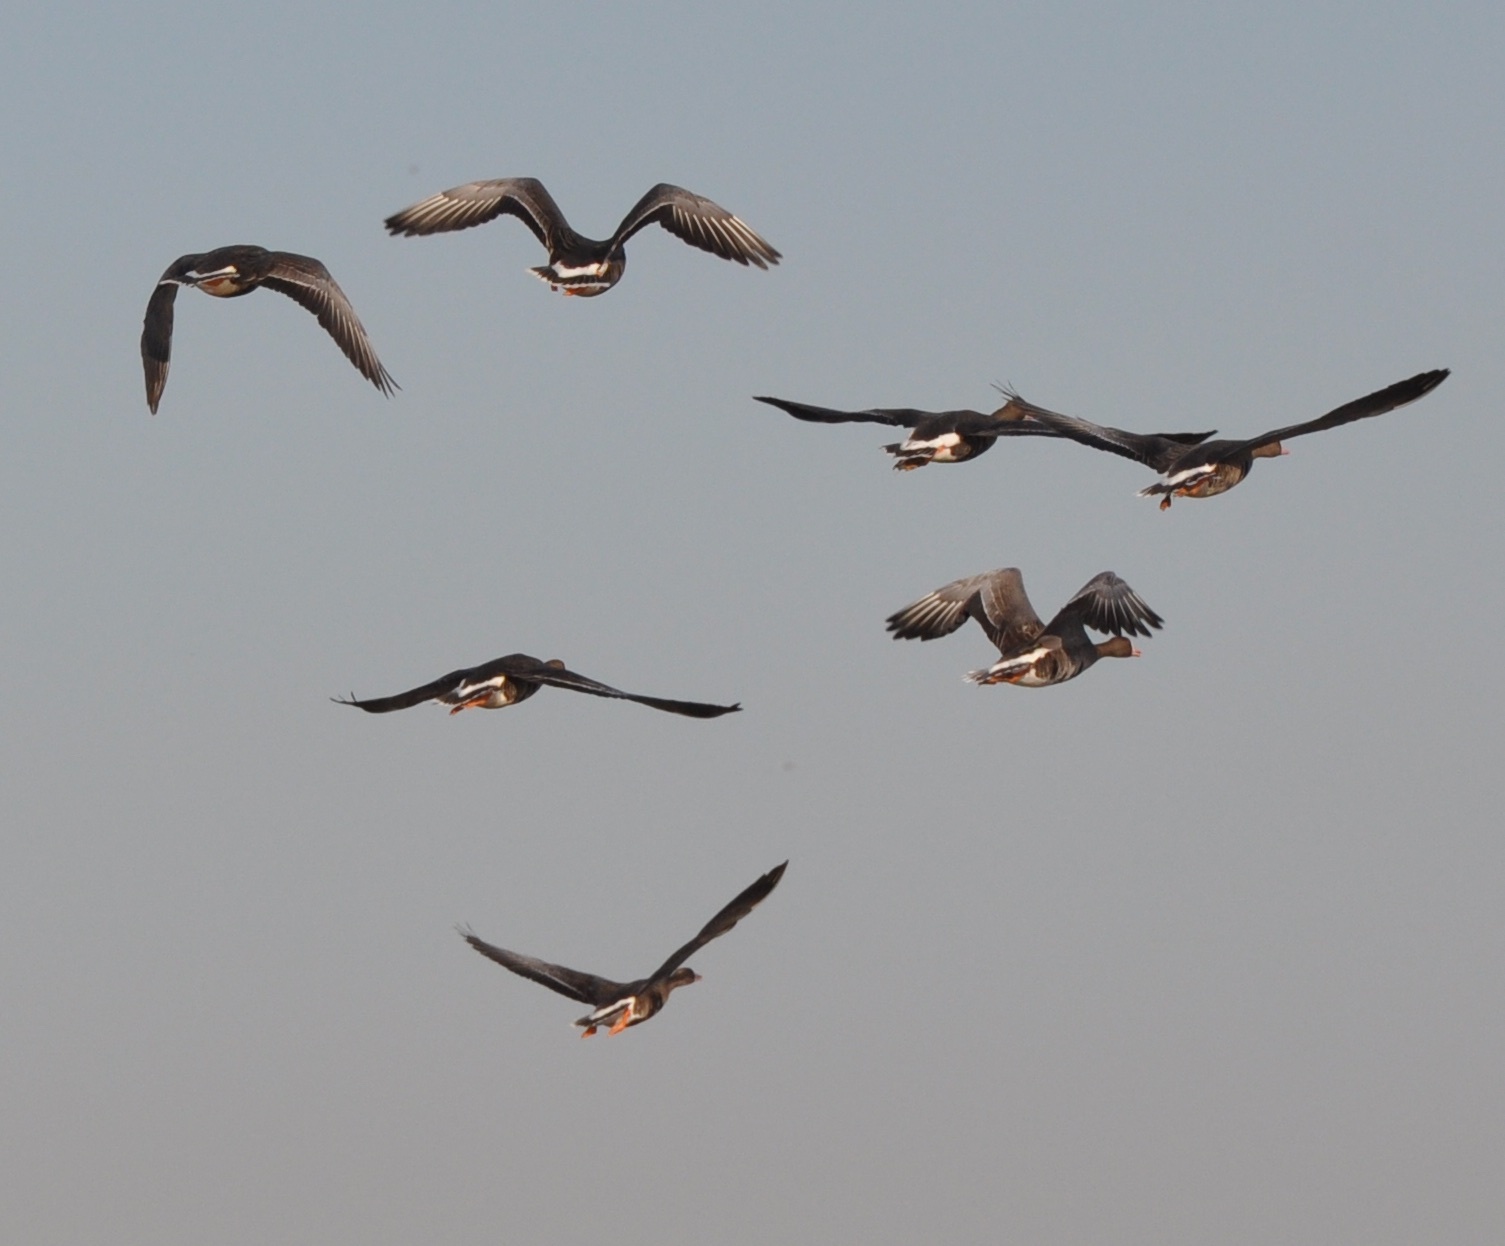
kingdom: Animalia
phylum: Chordata
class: Aves
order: Anseriformes
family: Anatidae
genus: Anser
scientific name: Anser albifrons
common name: Greater white-fronted goose
